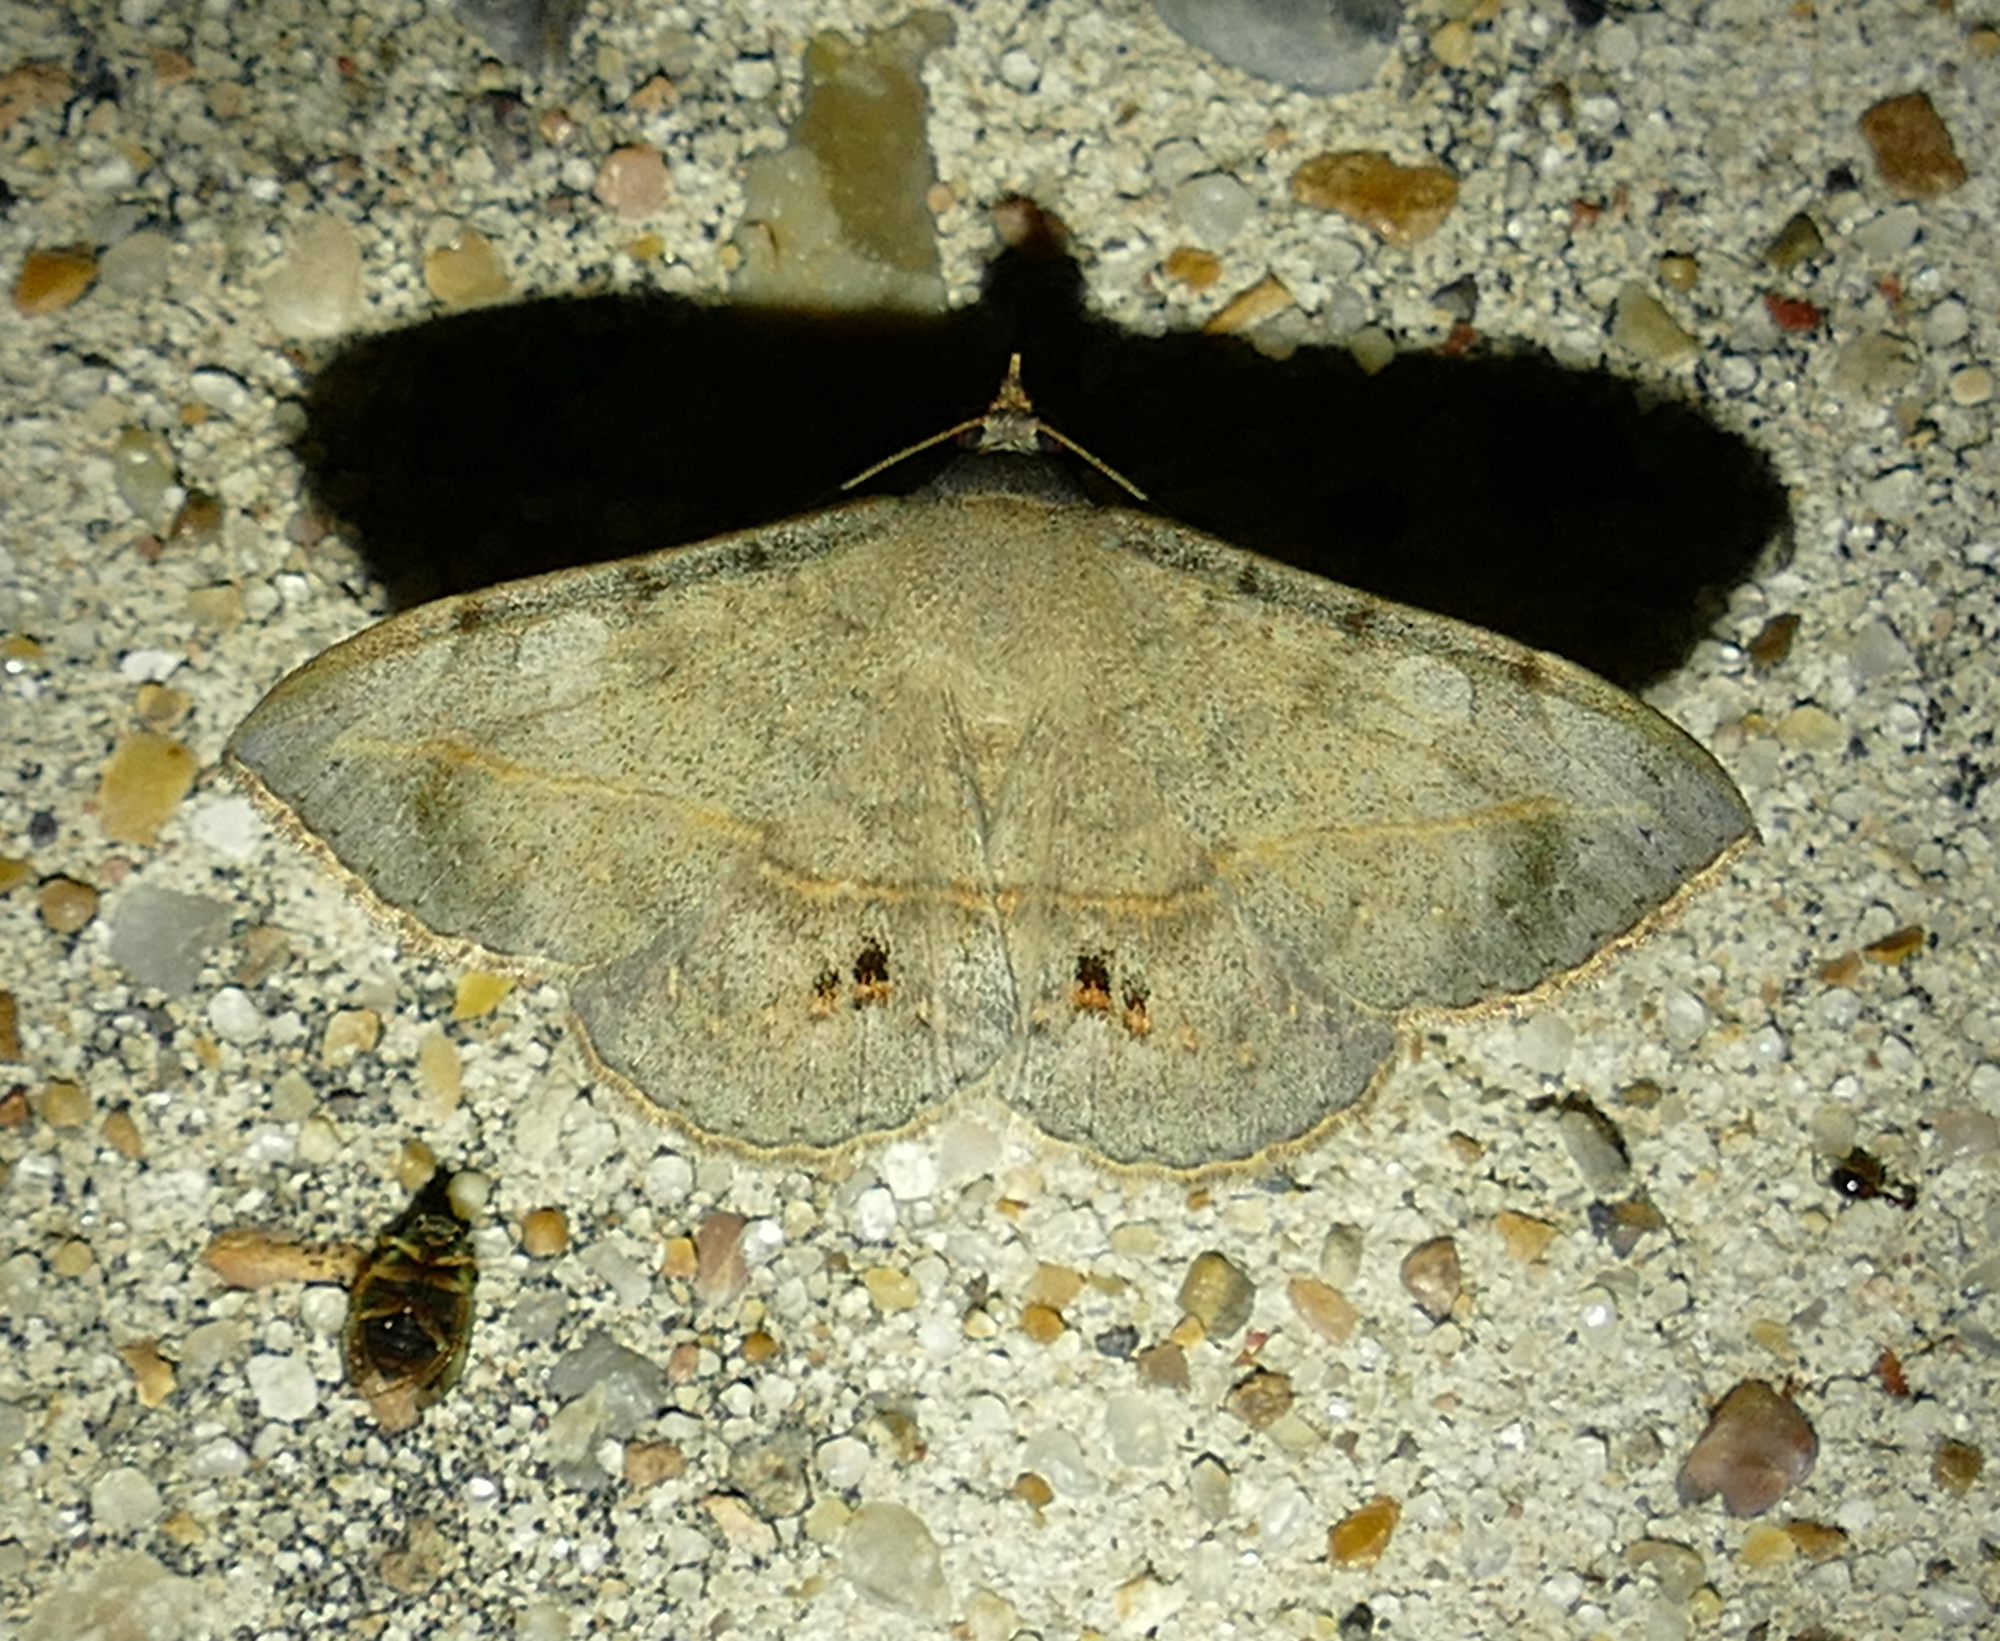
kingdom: Animalia
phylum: Arthropoda
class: Insecta
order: Lepidoptera
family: Erebidae
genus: Anticarsia
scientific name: Anticarsia gemmatalis
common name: Cutworm moth
